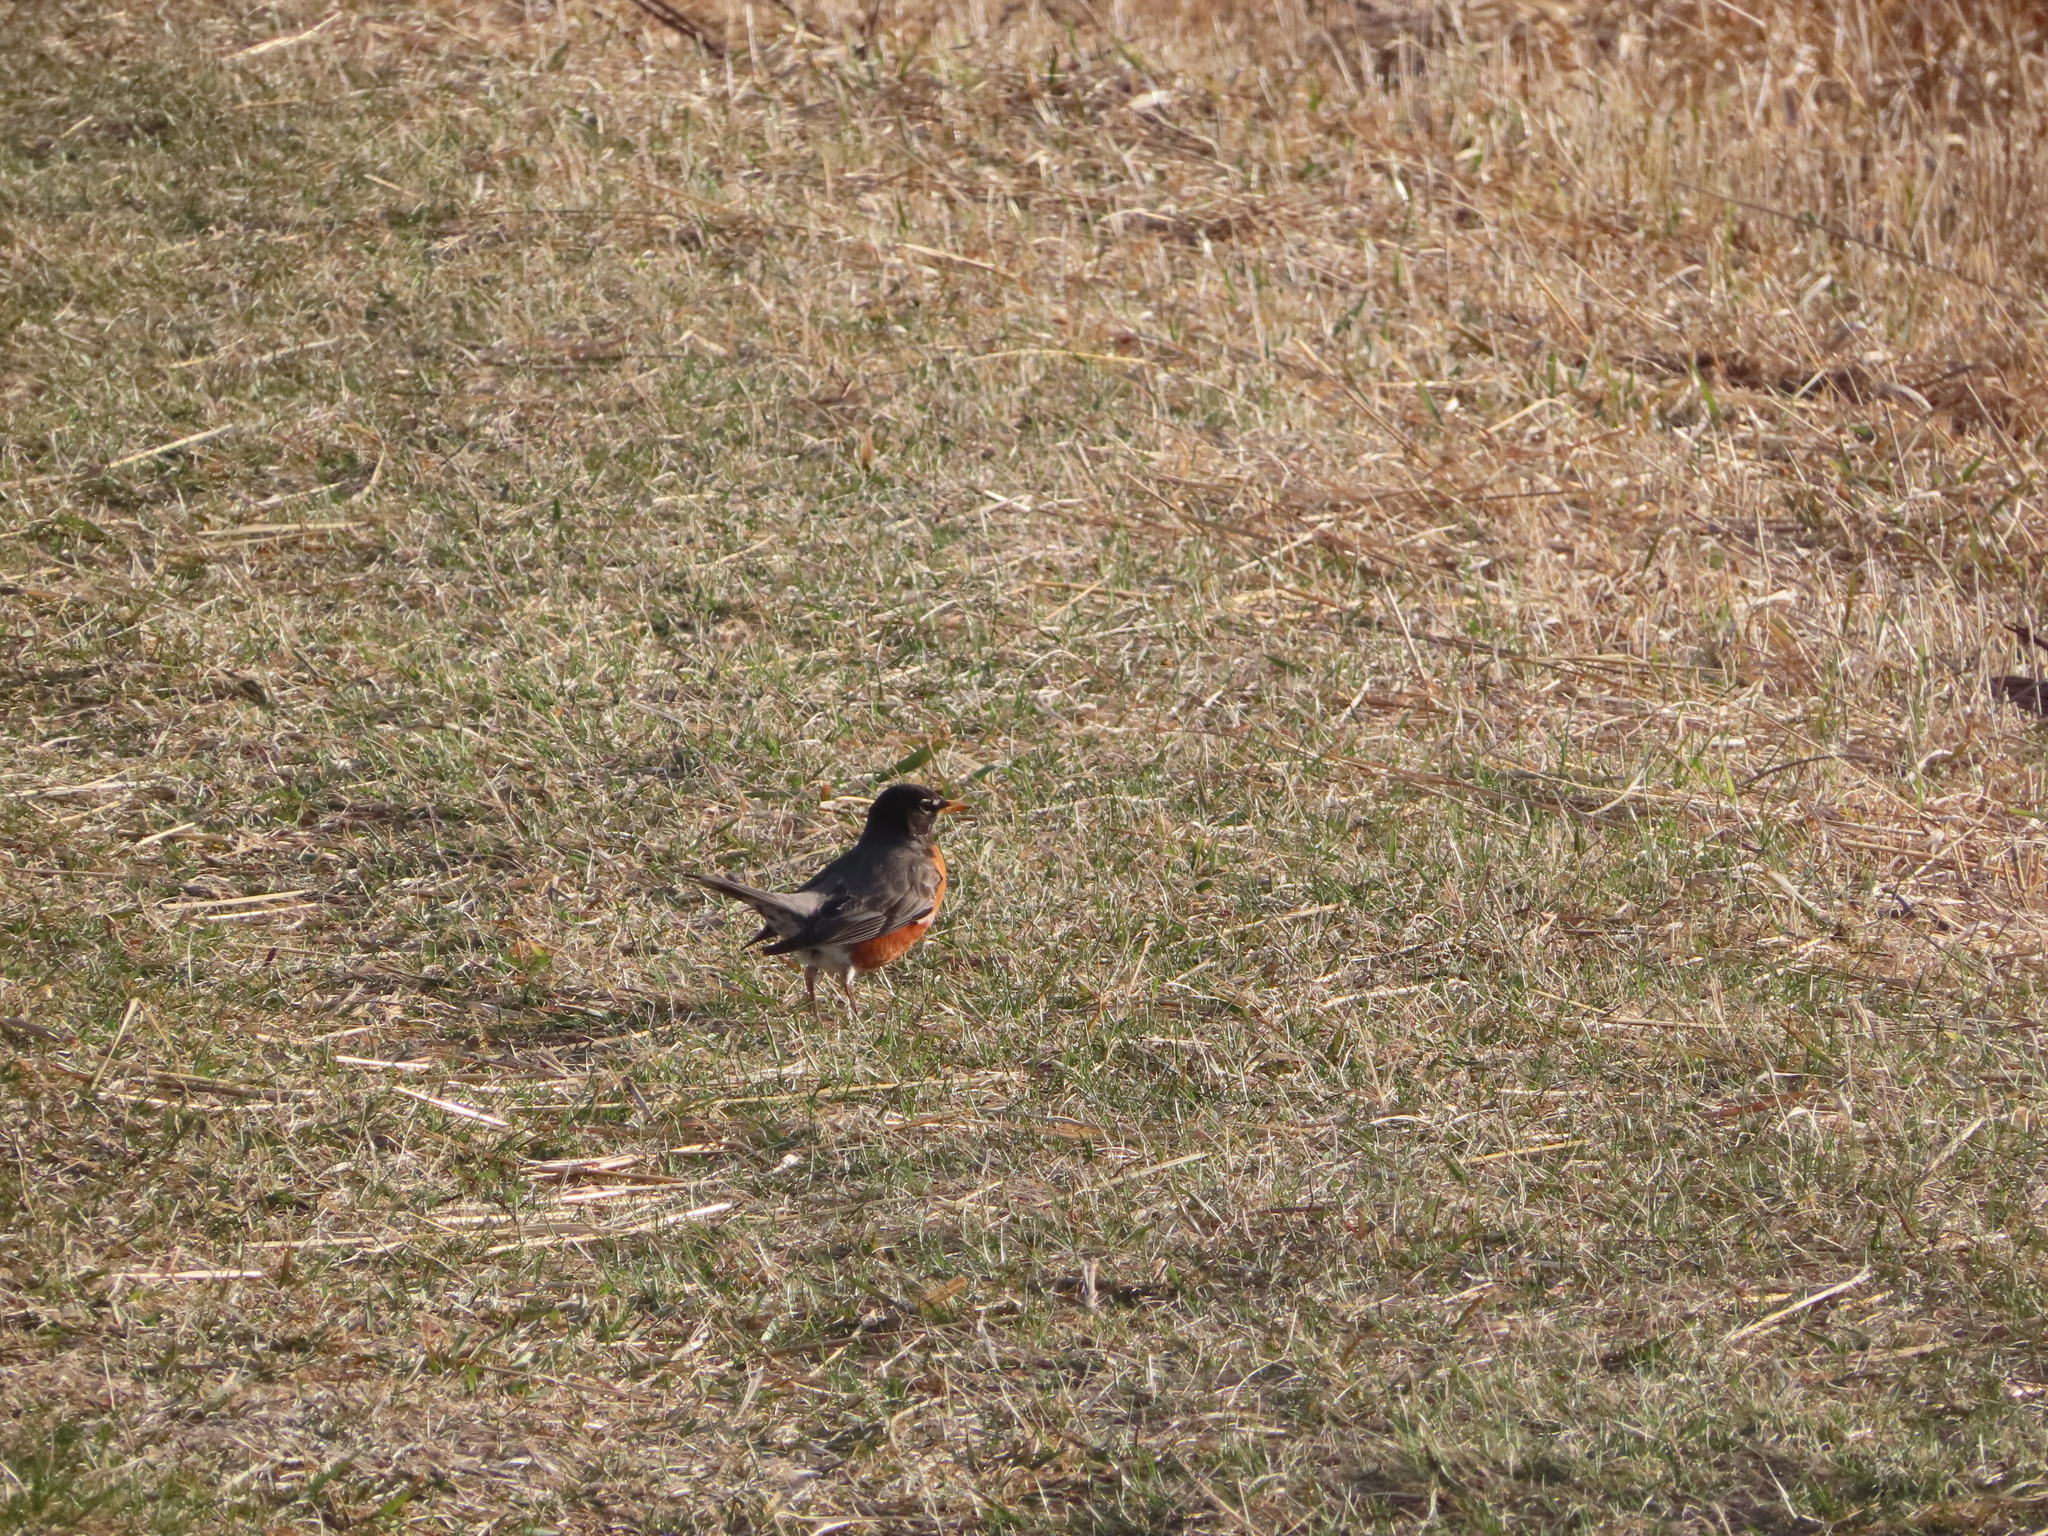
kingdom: Animalia
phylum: Chordata
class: Aves
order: Passeriformes
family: Turdidae
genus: Turdus
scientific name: Turdus migratorius
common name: American robin
